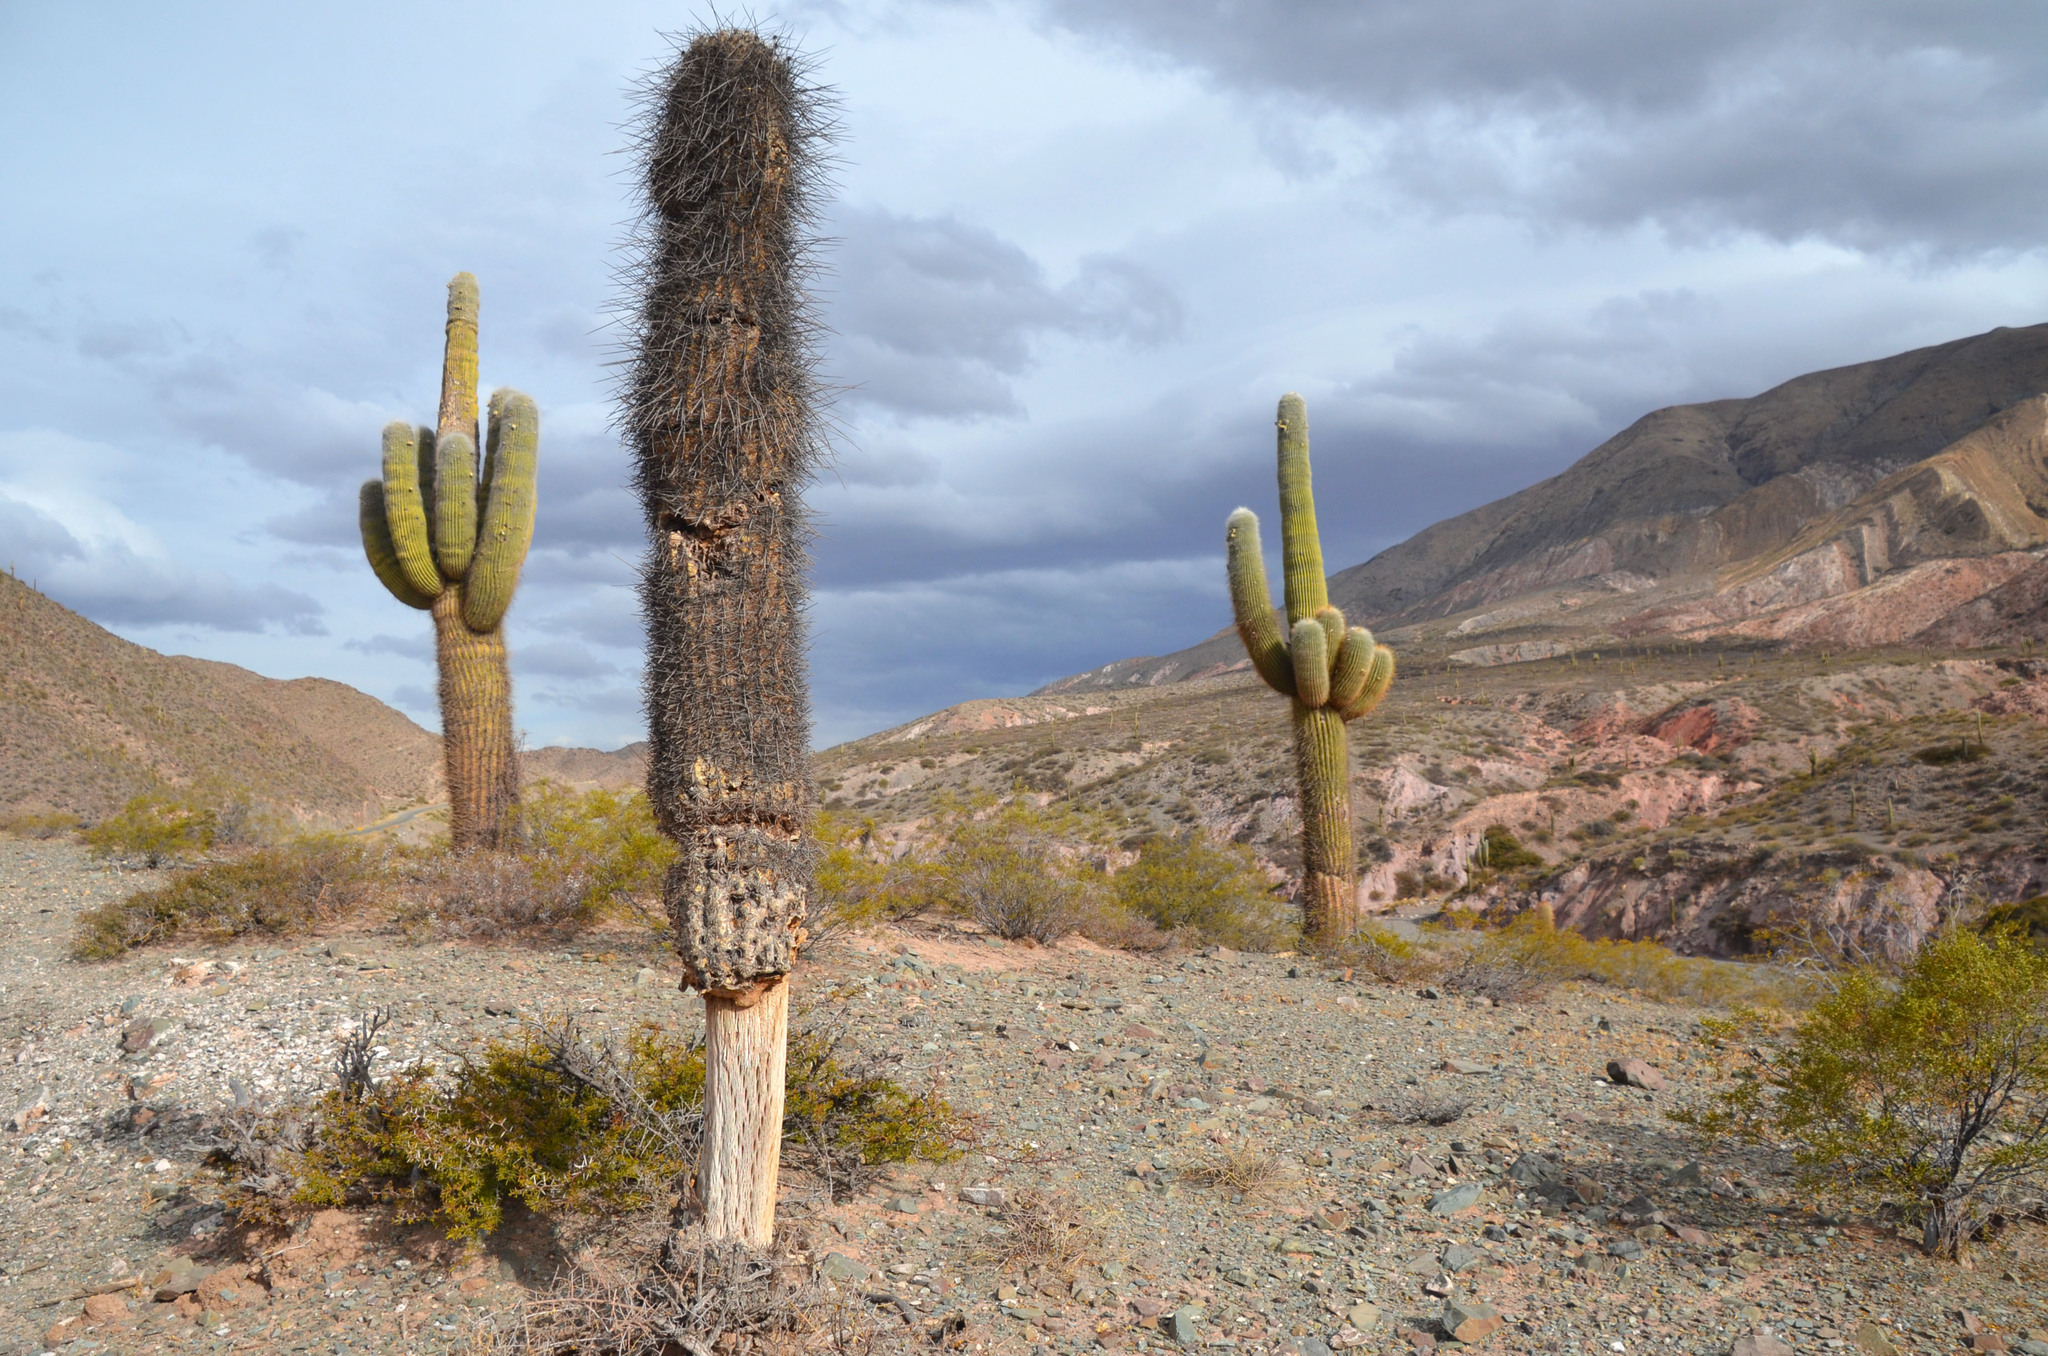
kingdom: Plantae
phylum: Tracheophyta
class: Magnoliopsida
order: Caryophyllales
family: Cactaceae
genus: Leucostele
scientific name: Leucostele atacamensis
